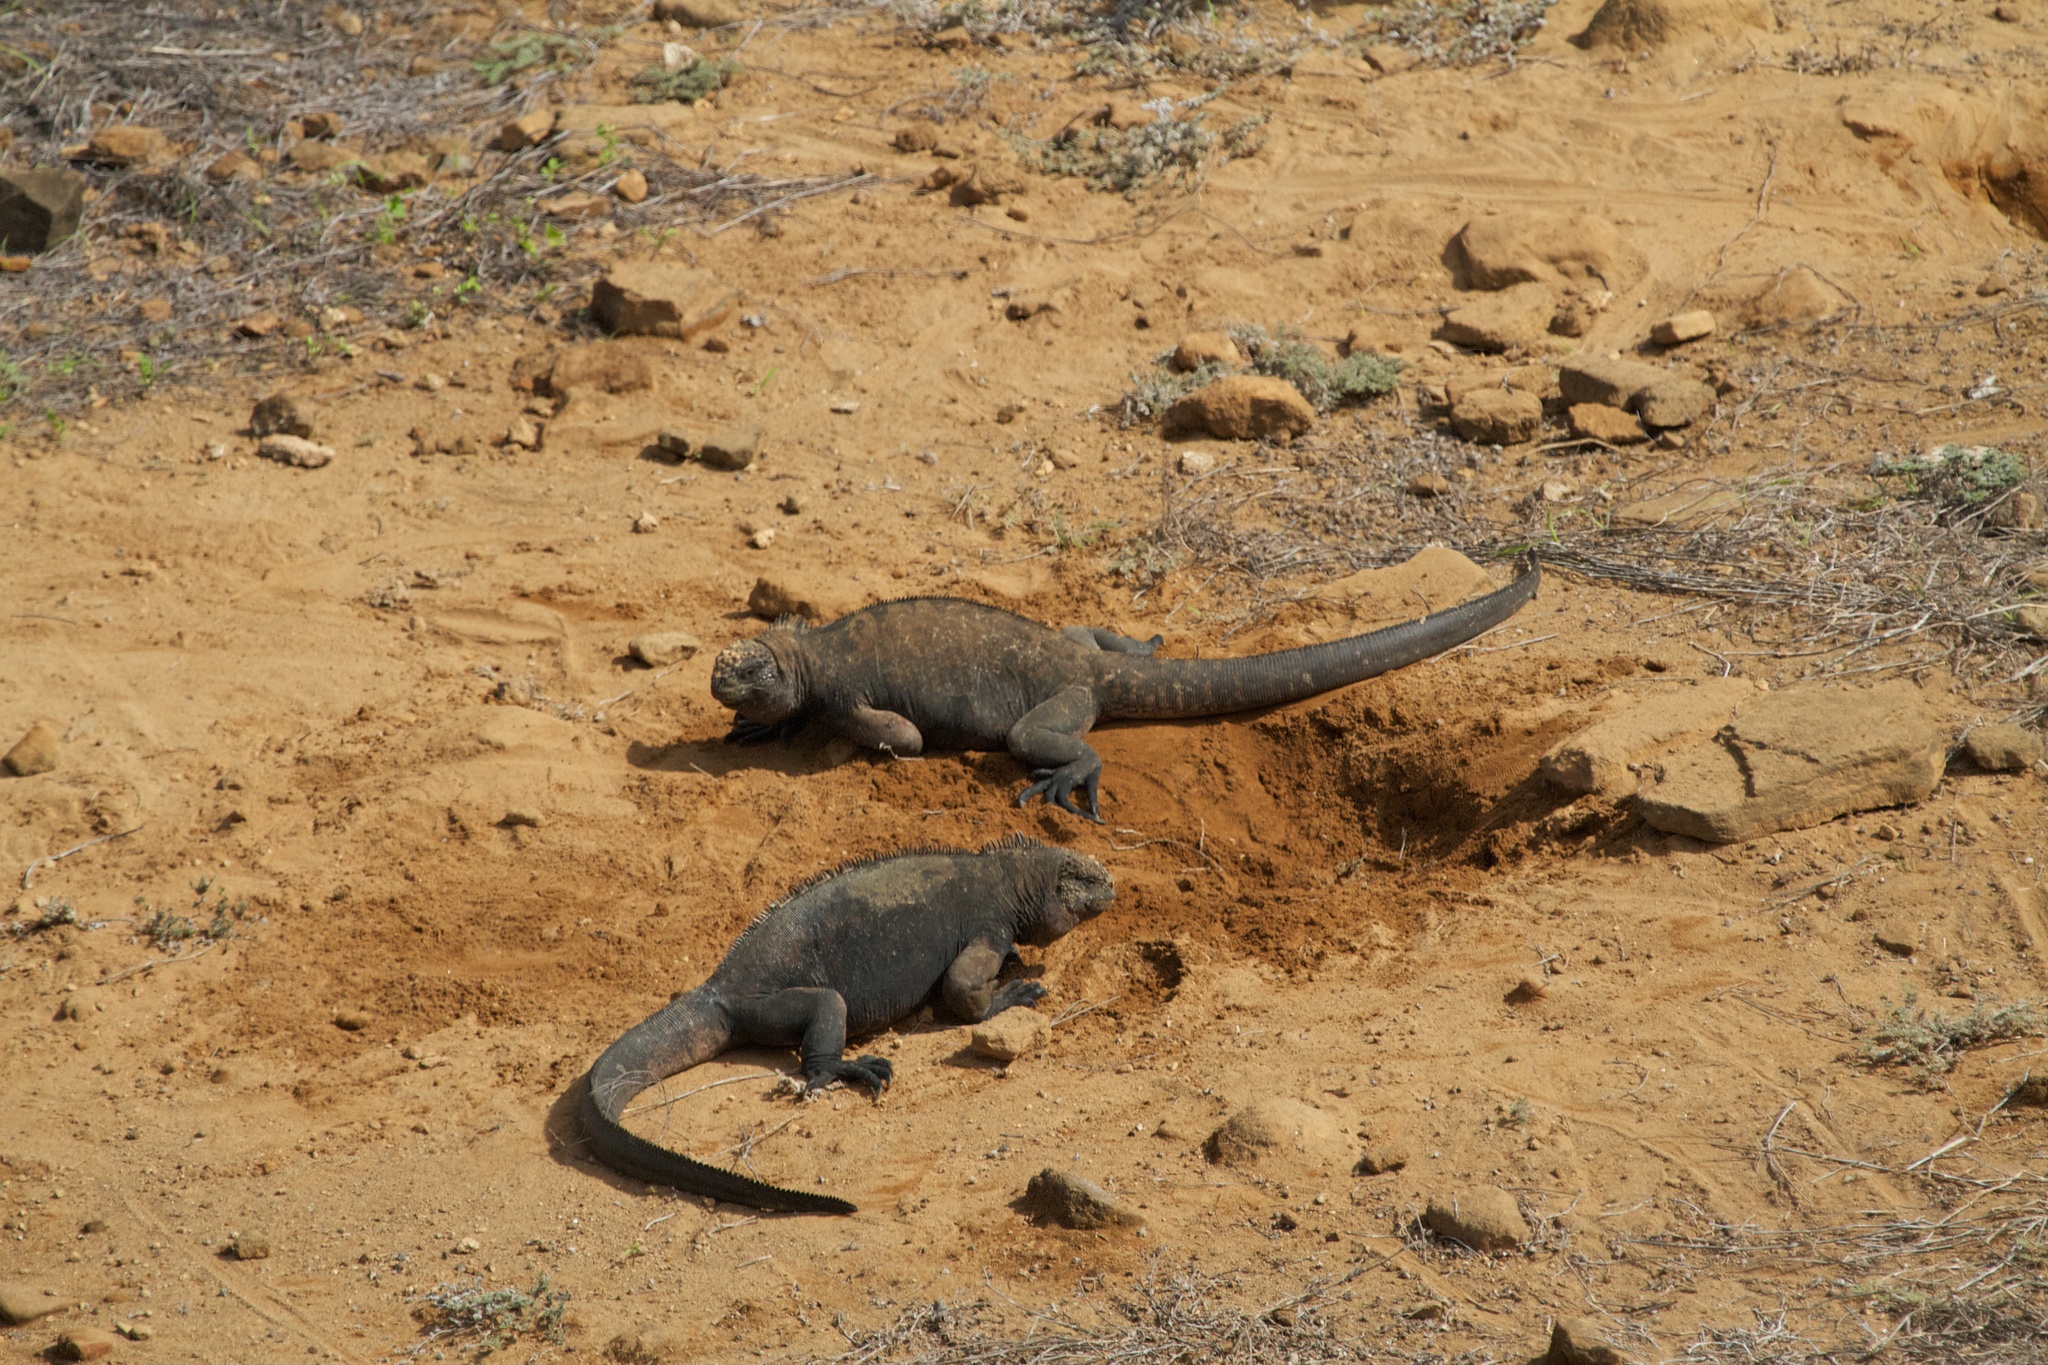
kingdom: Animalia
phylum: Chordata
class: Squamata
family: Iguanidae
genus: Amblyrhynchus
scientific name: Amblyrhynchus cristatus
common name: Marine iguana
